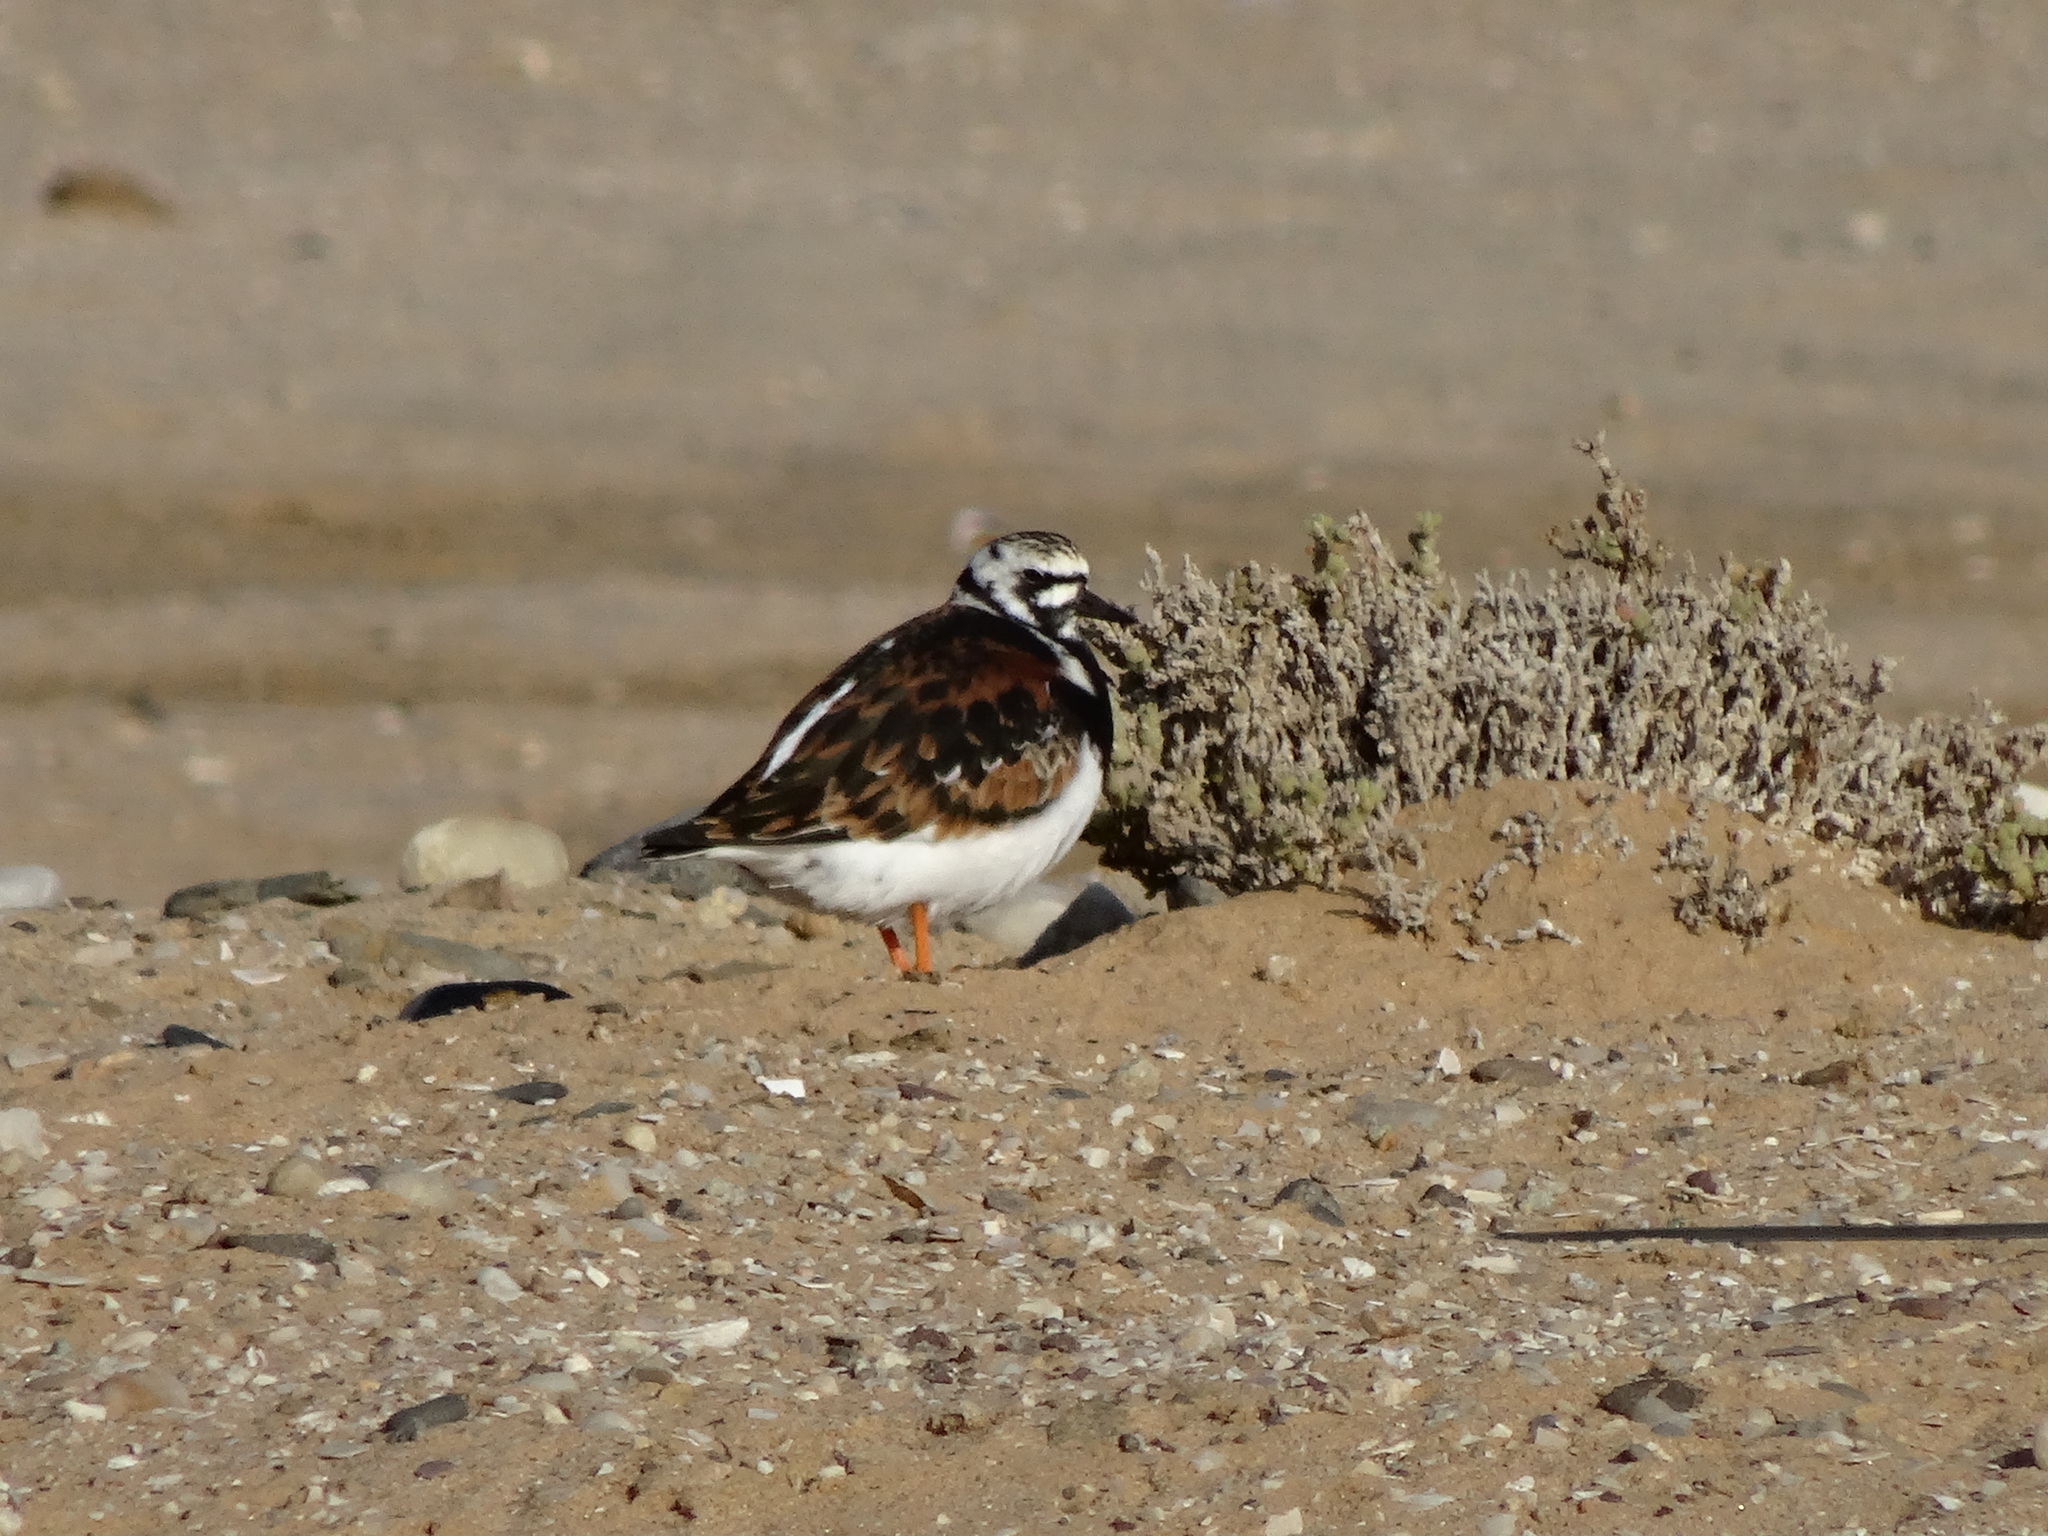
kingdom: Animalia
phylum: Chordata
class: Aves
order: Charadriiformes
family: Scolopacidae
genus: Arenaria
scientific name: Arenaria interpres
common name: Ruddy turnstone
